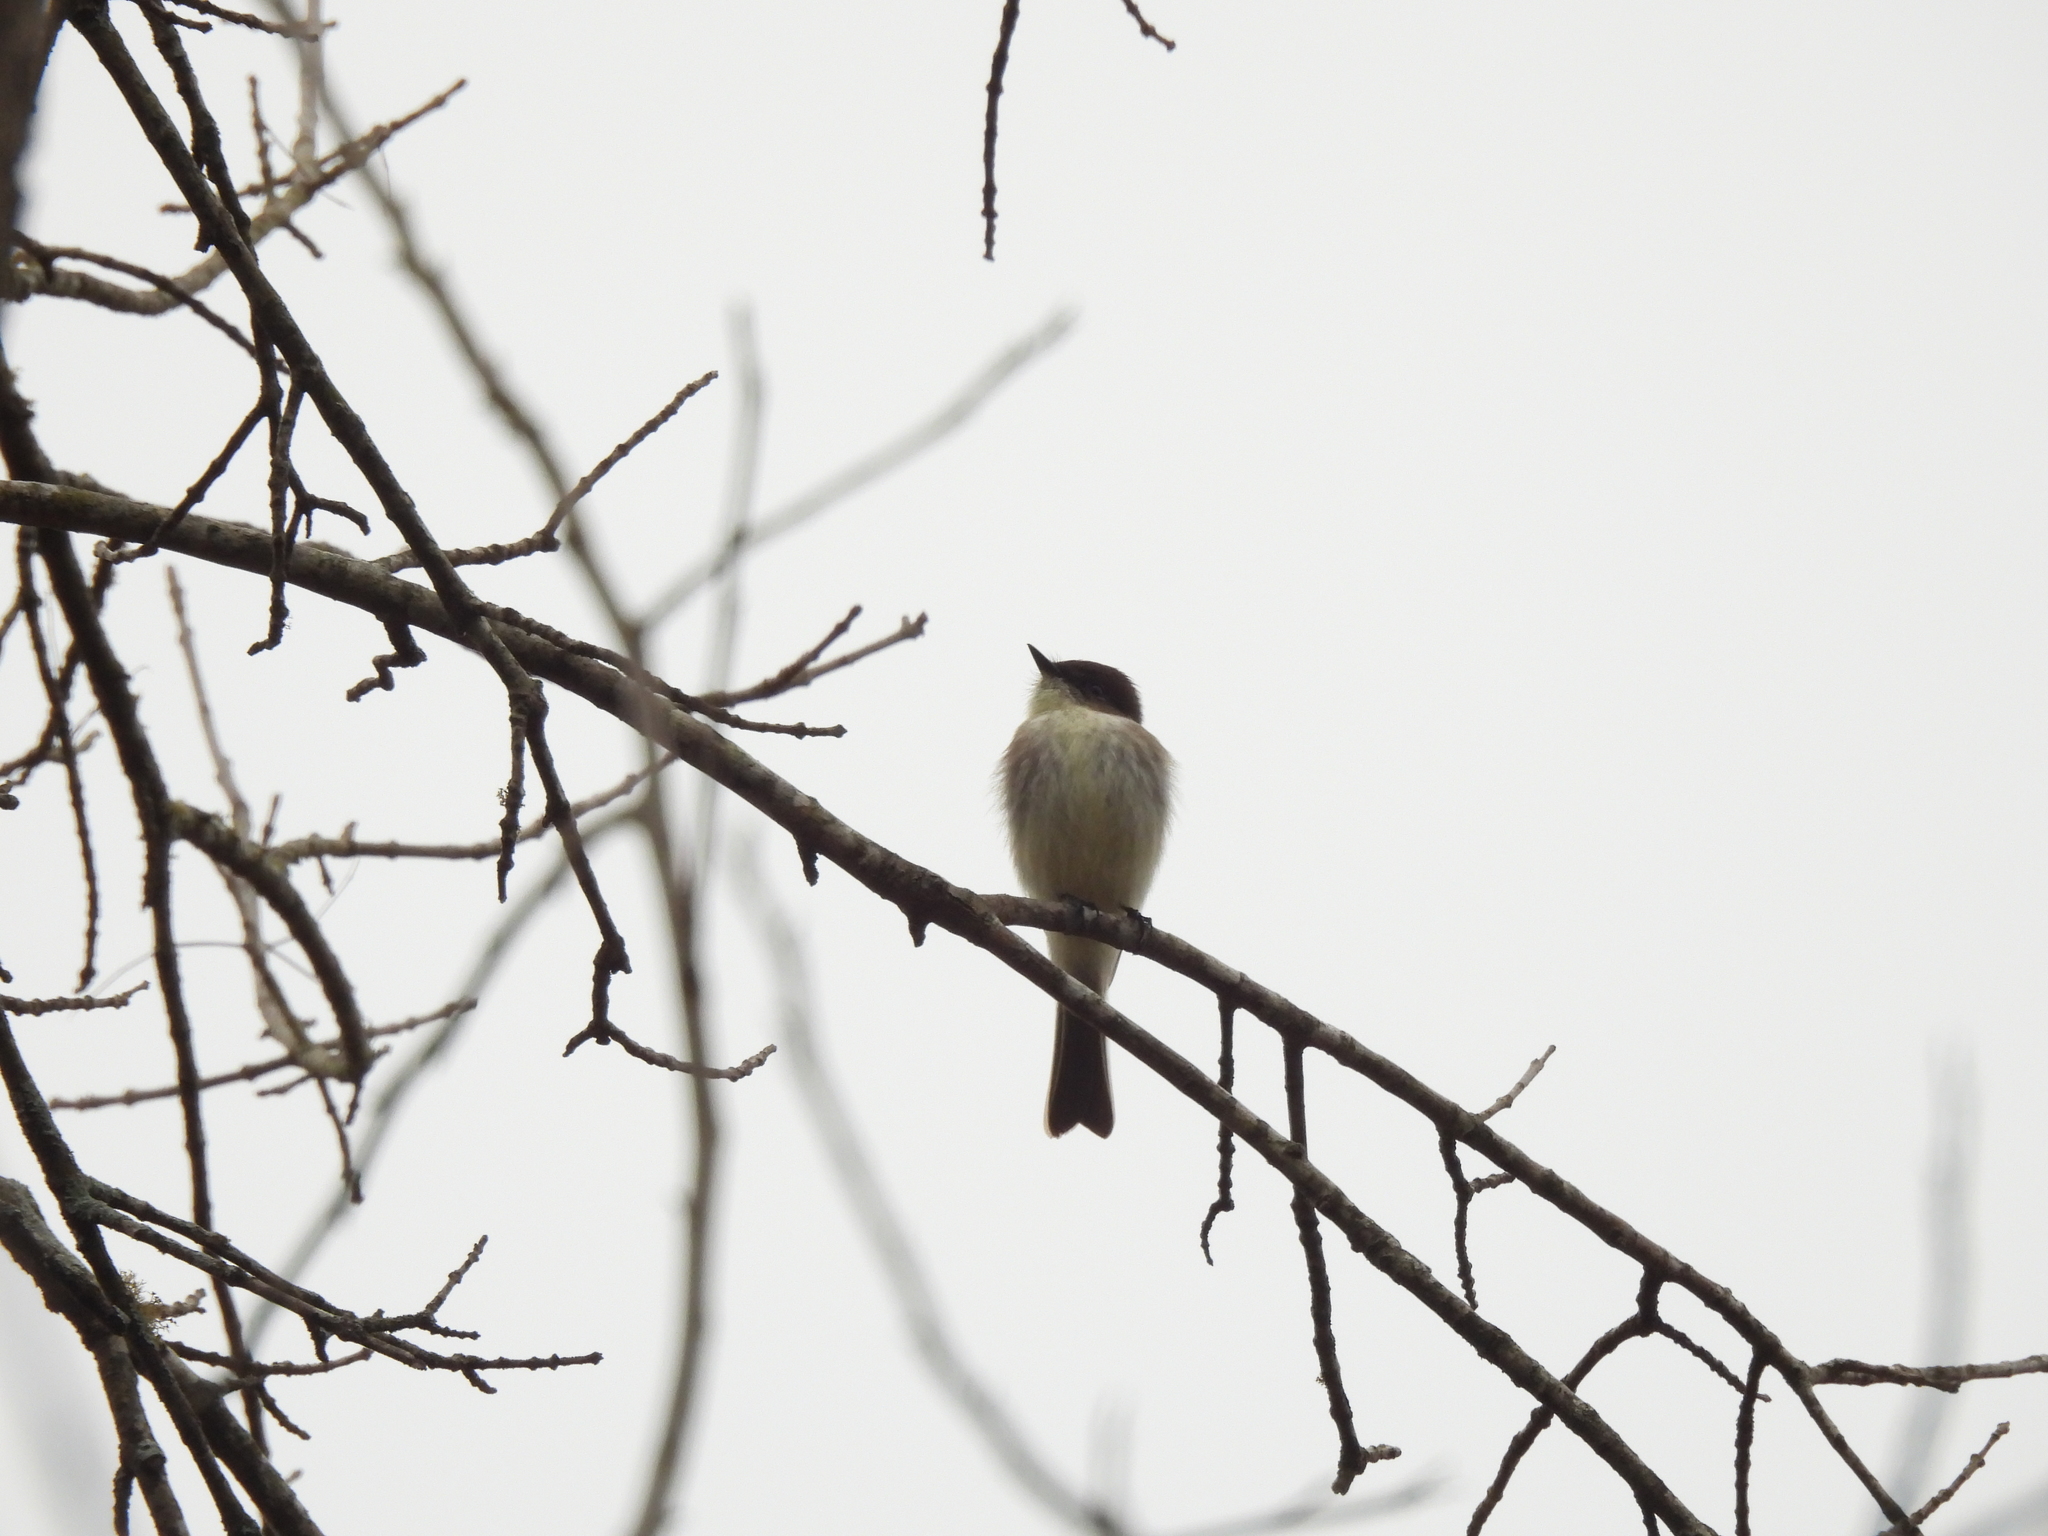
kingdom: Animalia
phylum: Chordata
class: Aves
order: Passeriformes
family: Tyrannidae
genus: Sayornis
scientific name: Sayornis phoebe
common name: Eastern phoebe
